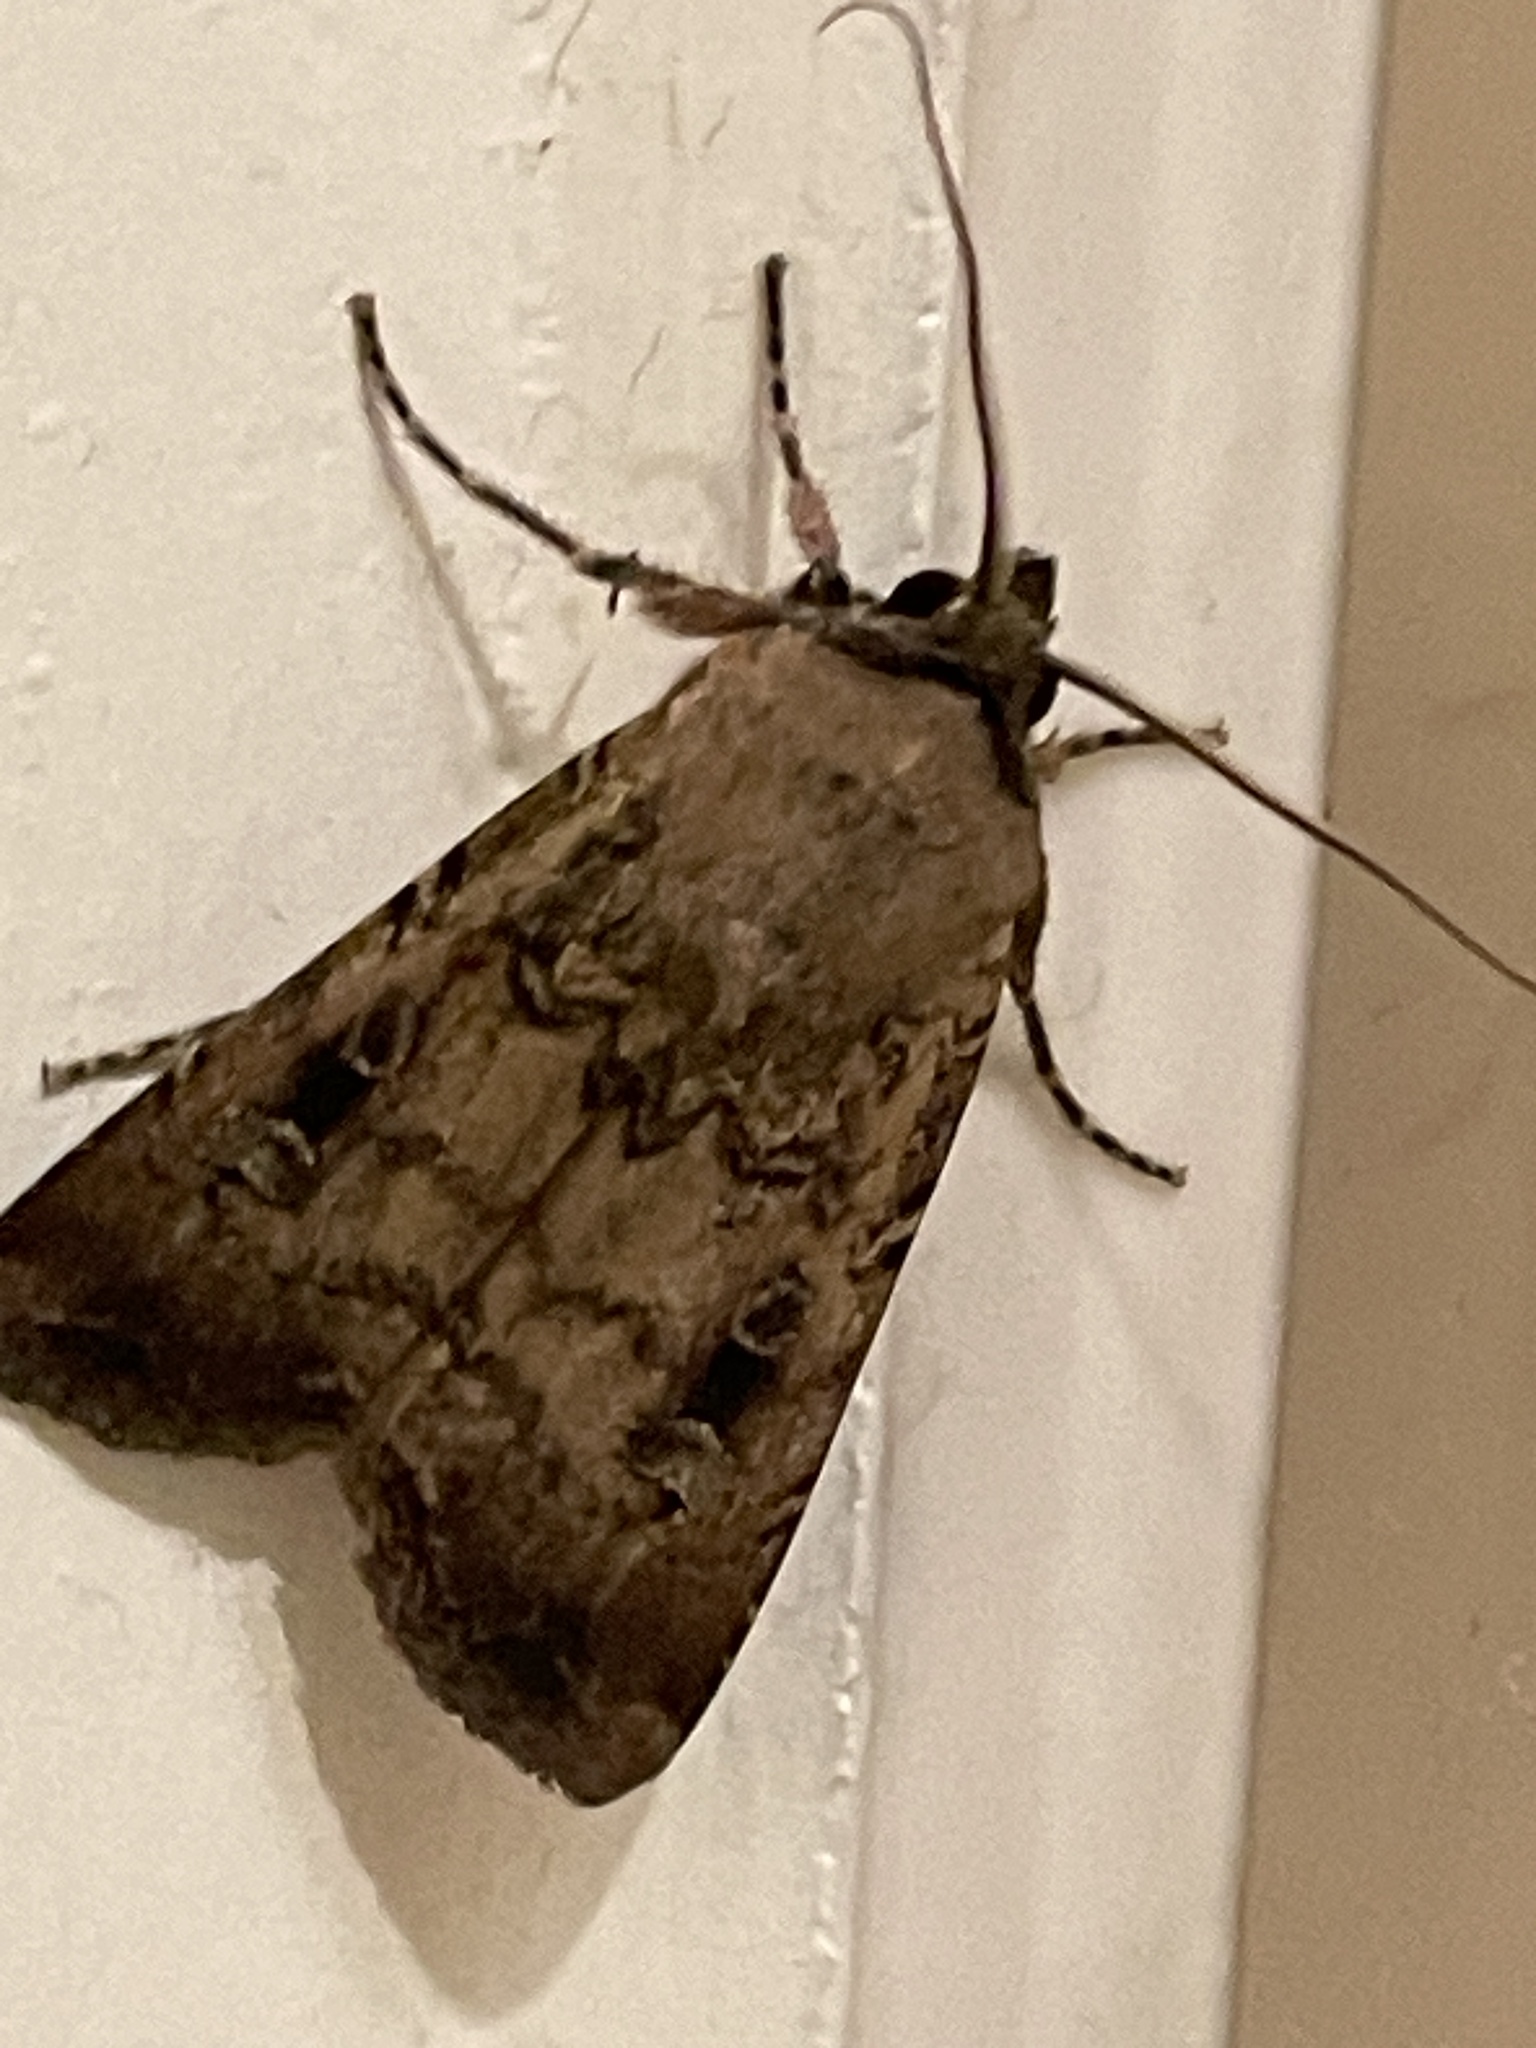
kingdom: Animalia
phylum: Arthropoda
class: Insecta
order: Lepidoptera
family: Noctuidae
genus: Agrotis
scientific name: Agrotis infusa
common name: Bogong moth
